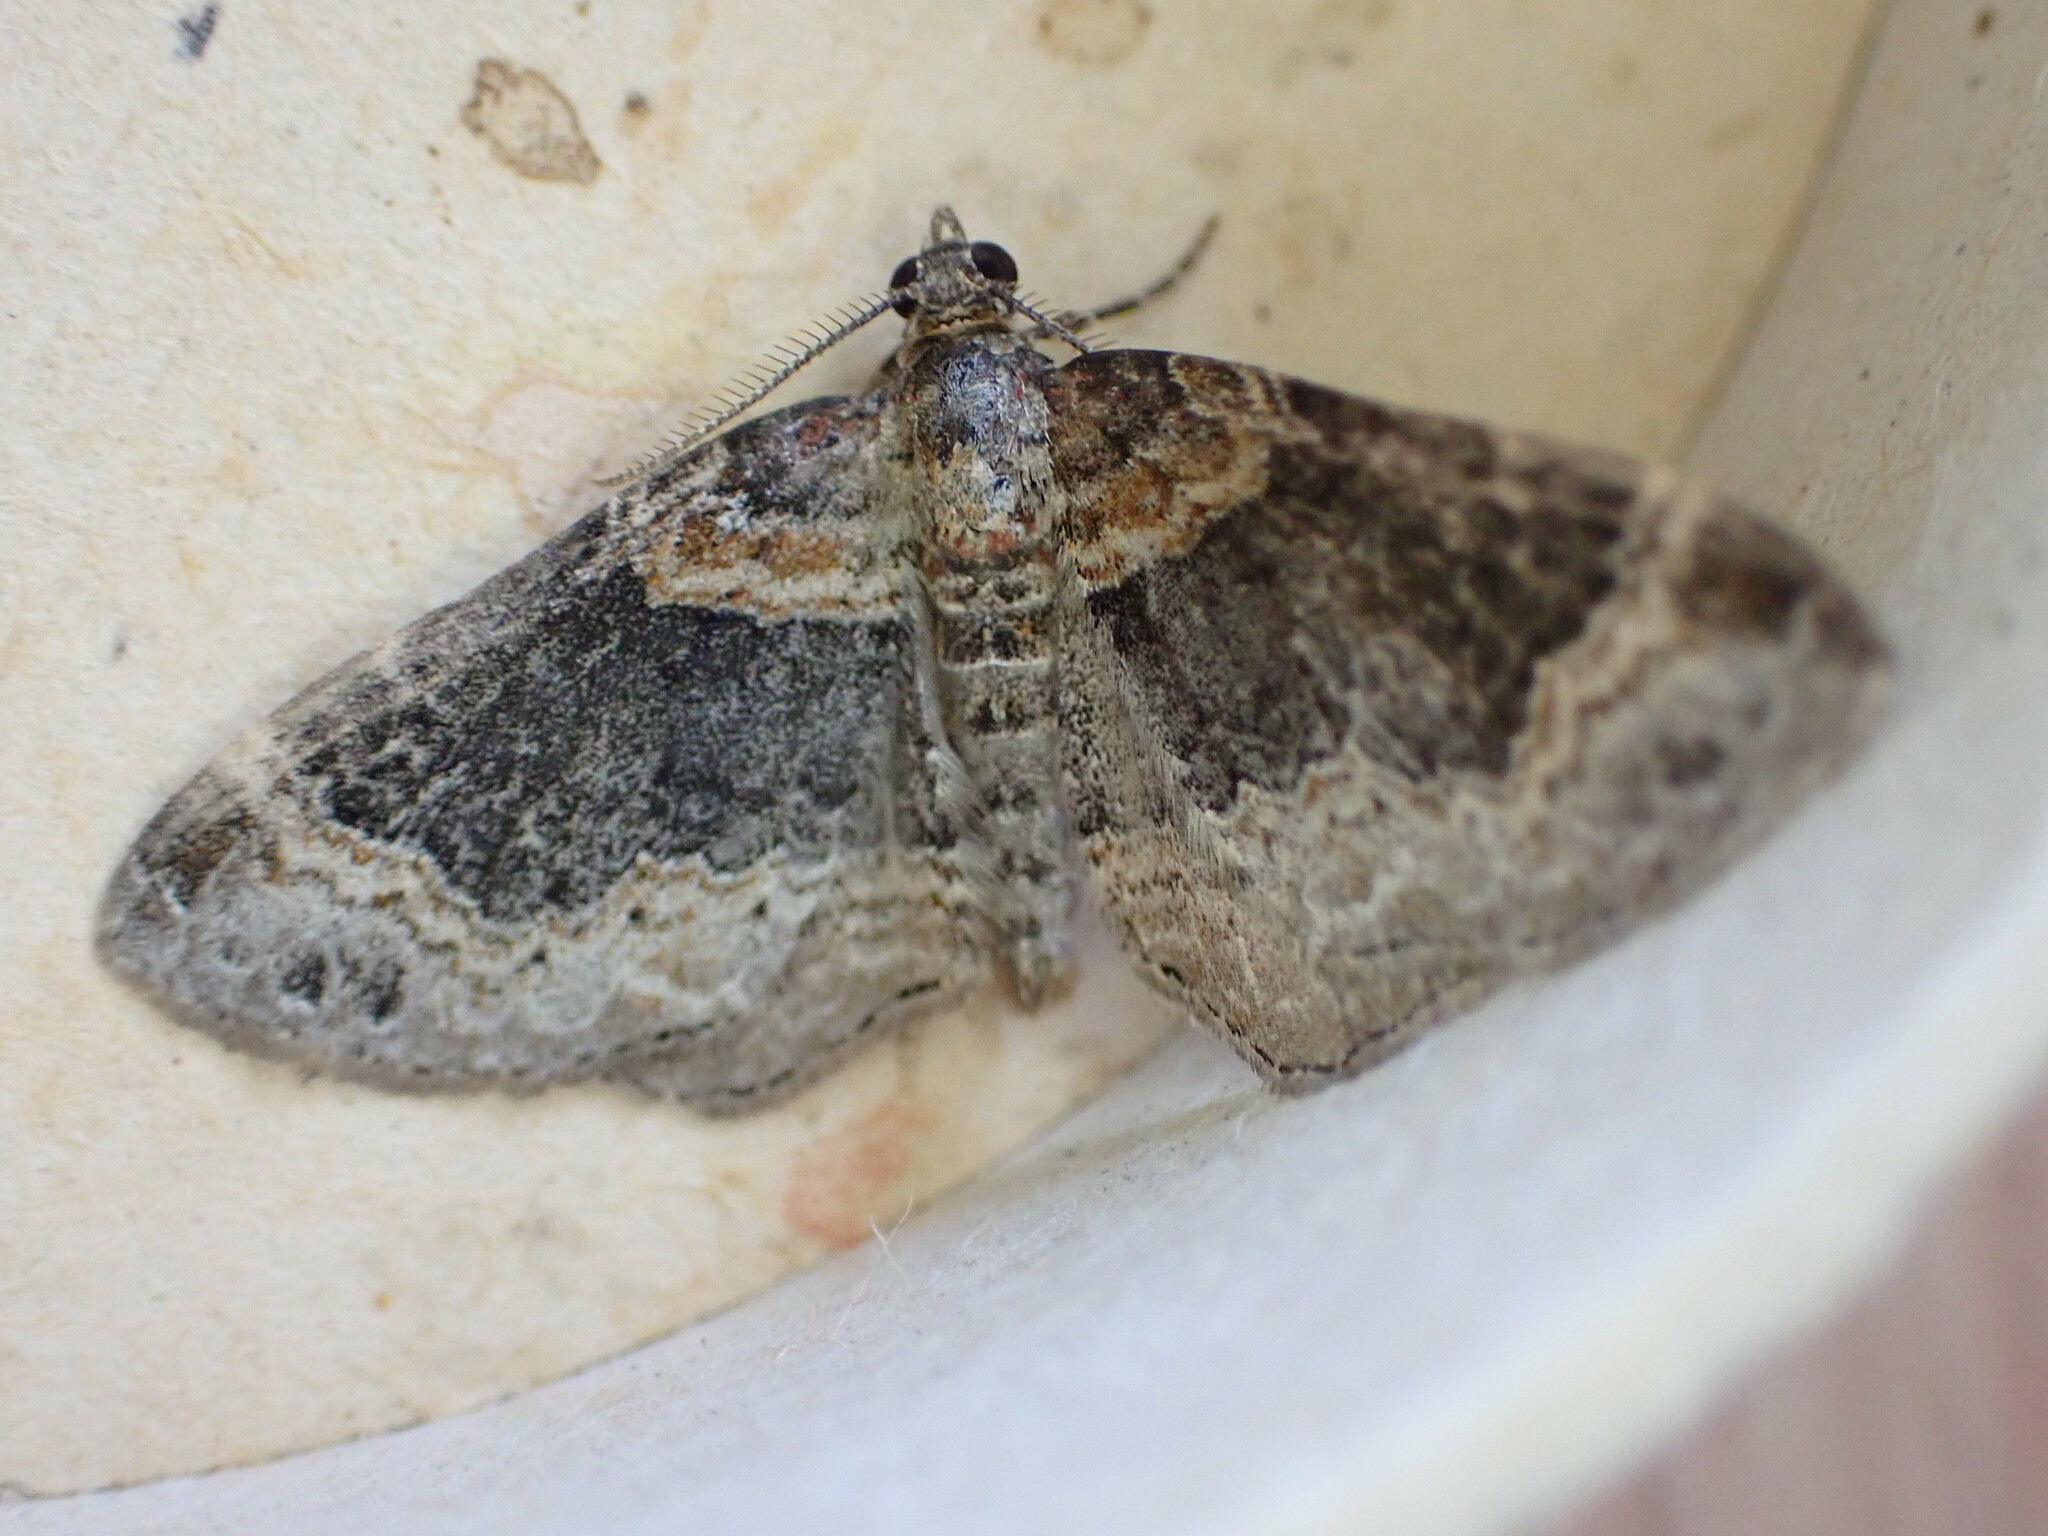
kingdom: Animalia
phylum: Arthropoda
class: Insecta
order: Lepidoptera
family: Geometridae
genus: Xanthorhoe
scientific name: Xanthorhoe ferrugata
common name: Dark-barred twin-spot carpet
